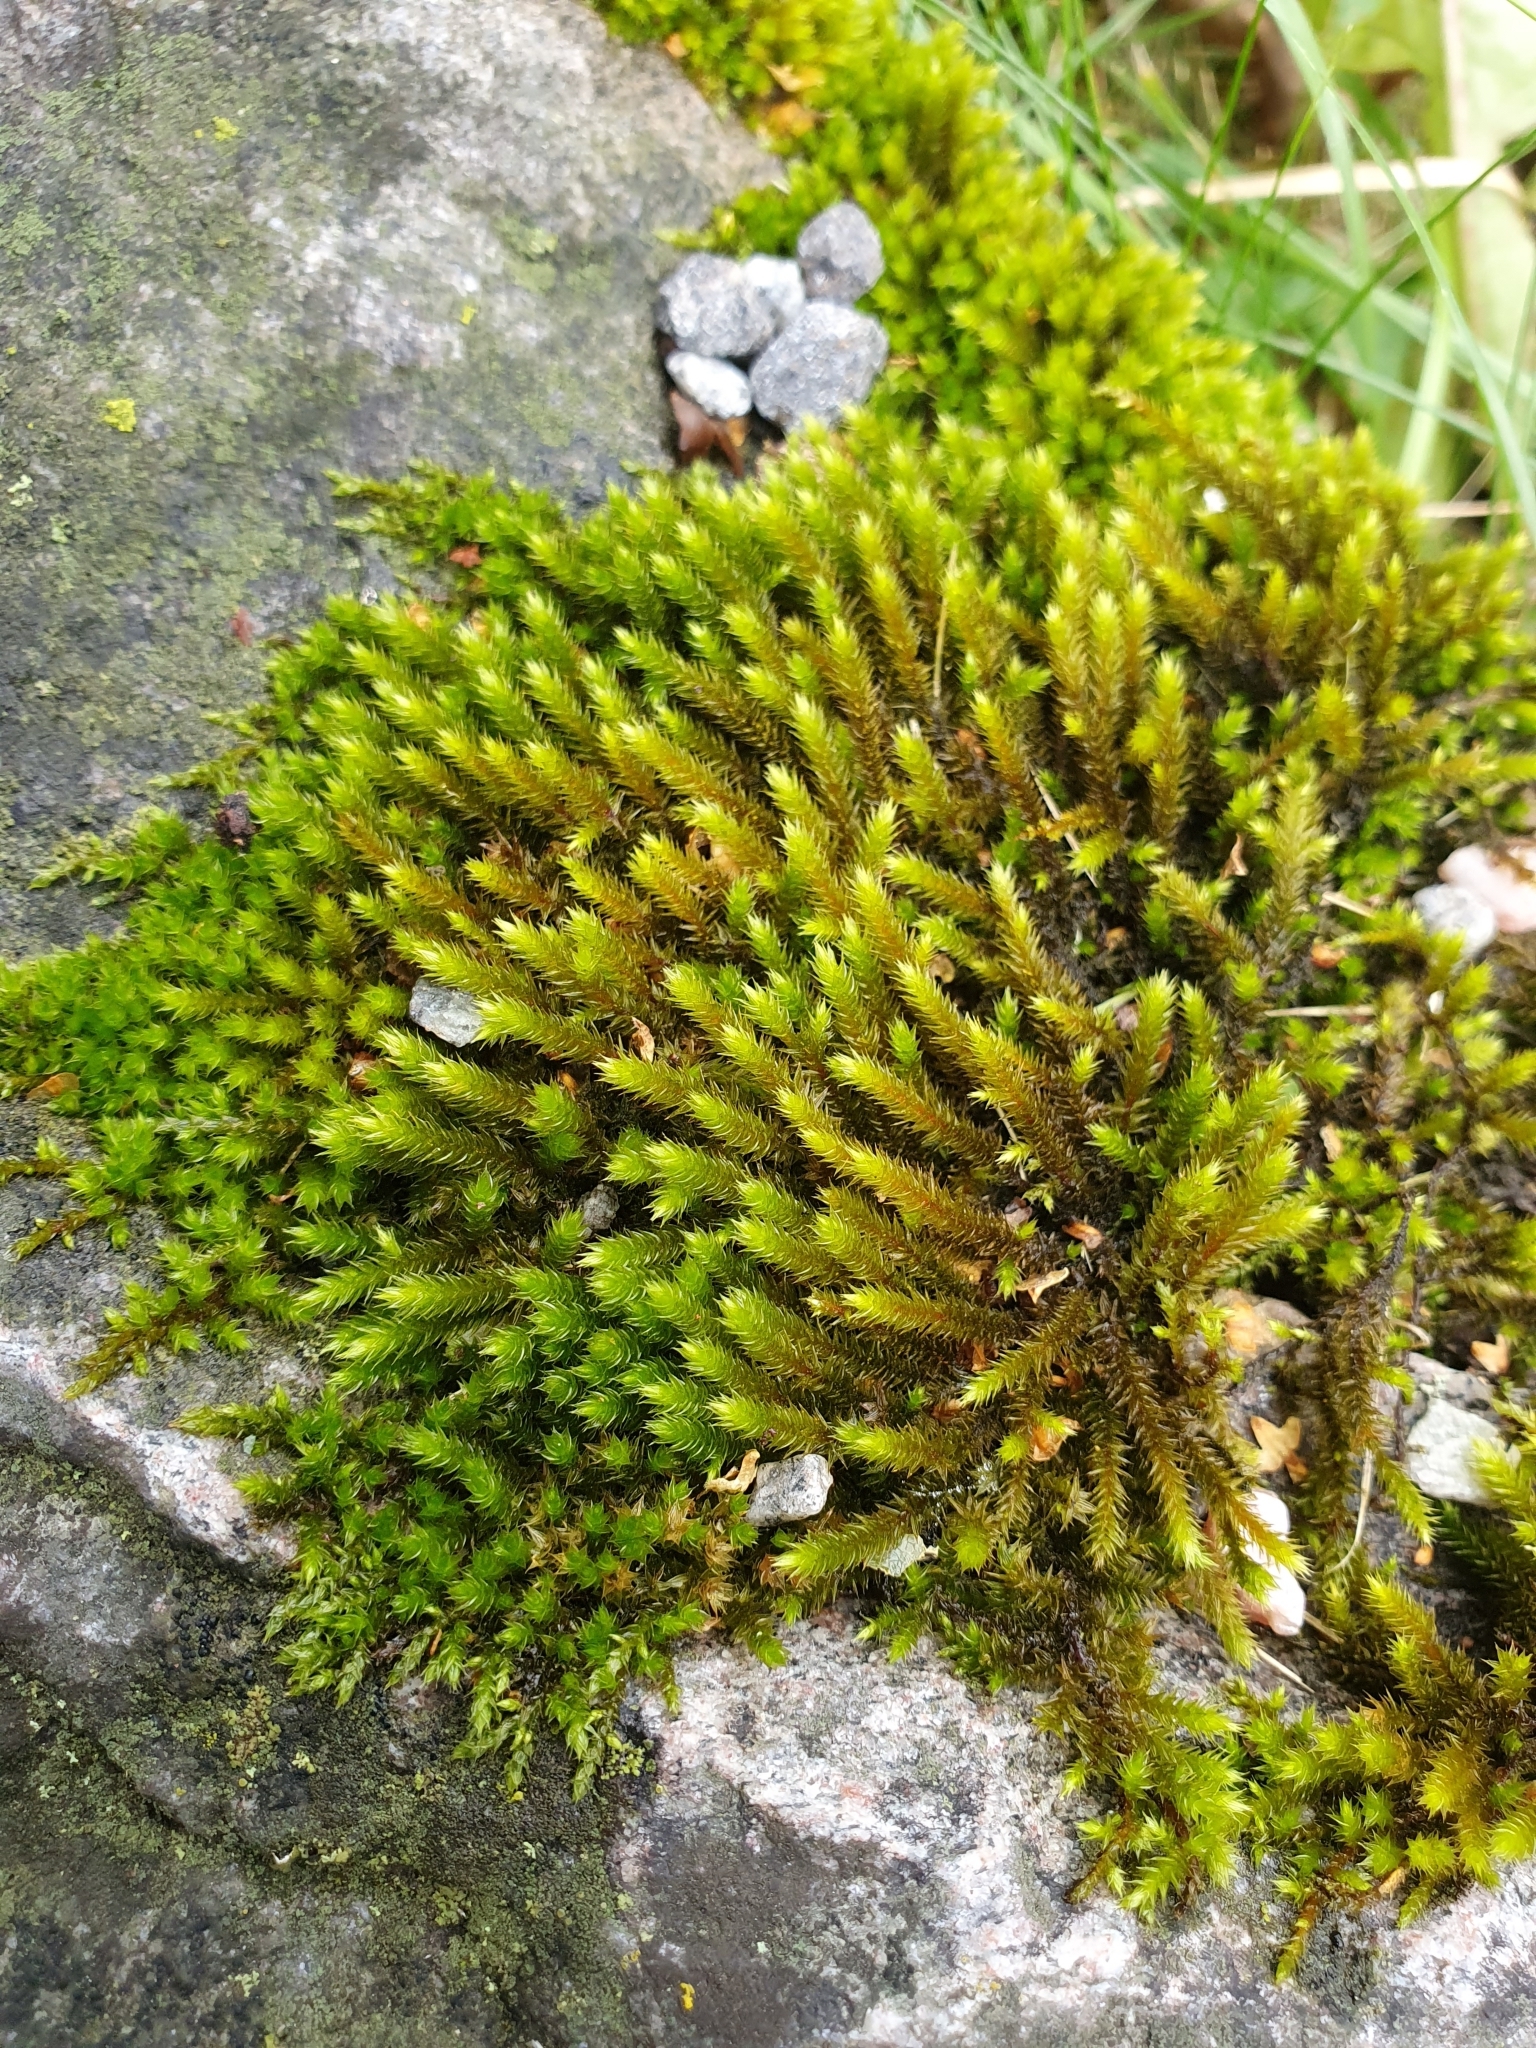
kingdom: Plantae
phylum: Bryophyta
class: Bryopsida
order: Hypnales
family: Leucodontaceae
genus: Leucodon
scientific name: Leucodon sciuroides
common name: Squirrel-tail moss
